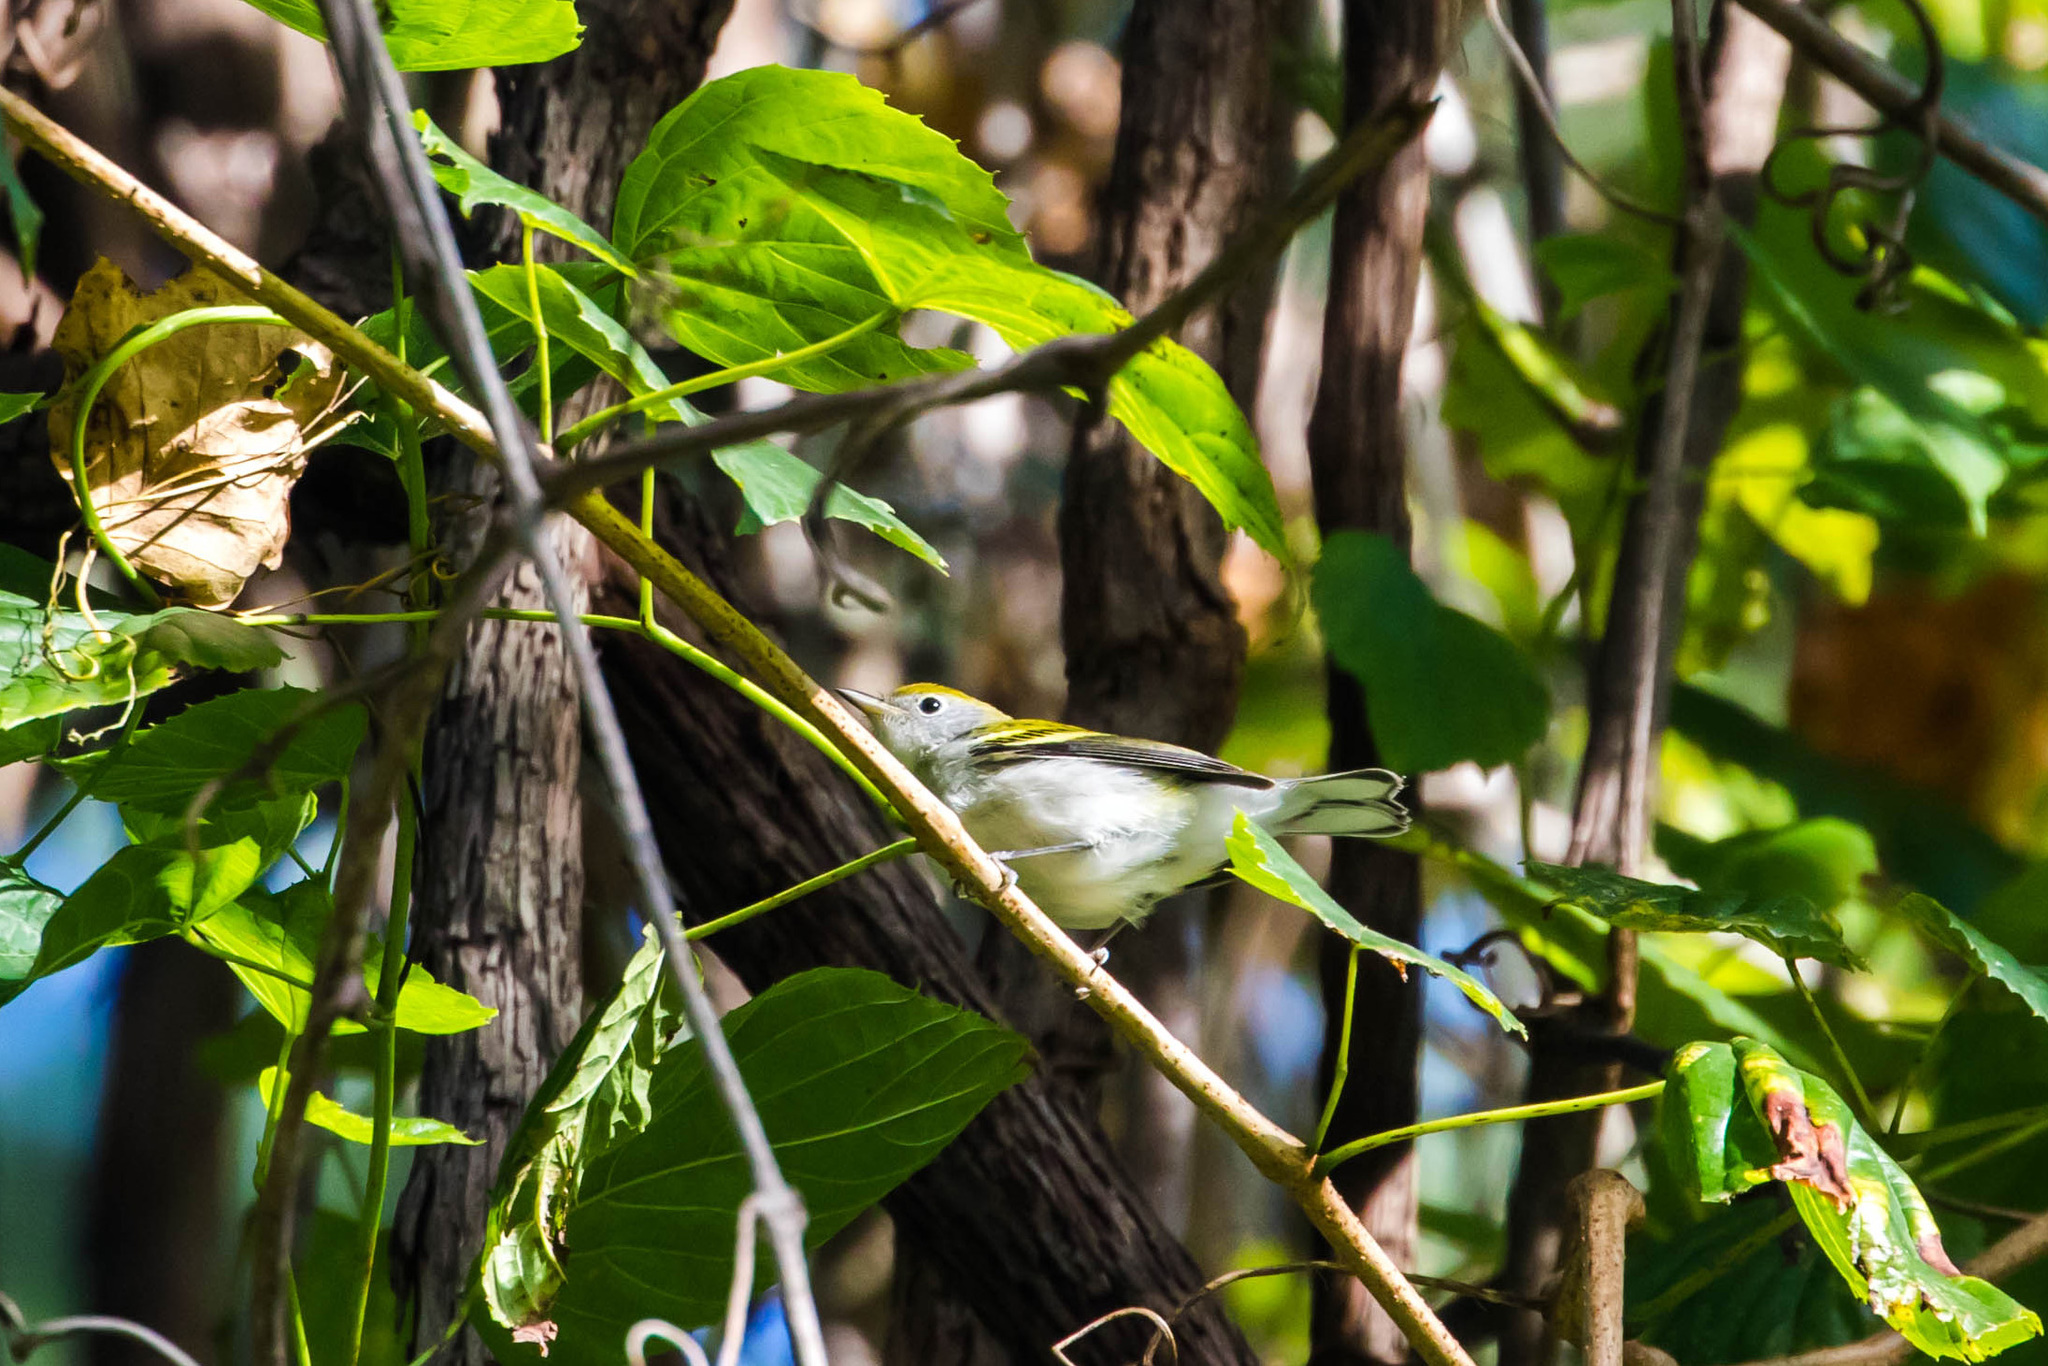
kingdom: Animalia
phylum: Chordata
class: Aves
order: Passeriformes
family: Parulidae
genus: Setophaga
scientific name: Setophaga pensylvanica
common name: Chestnut-sided warbler
